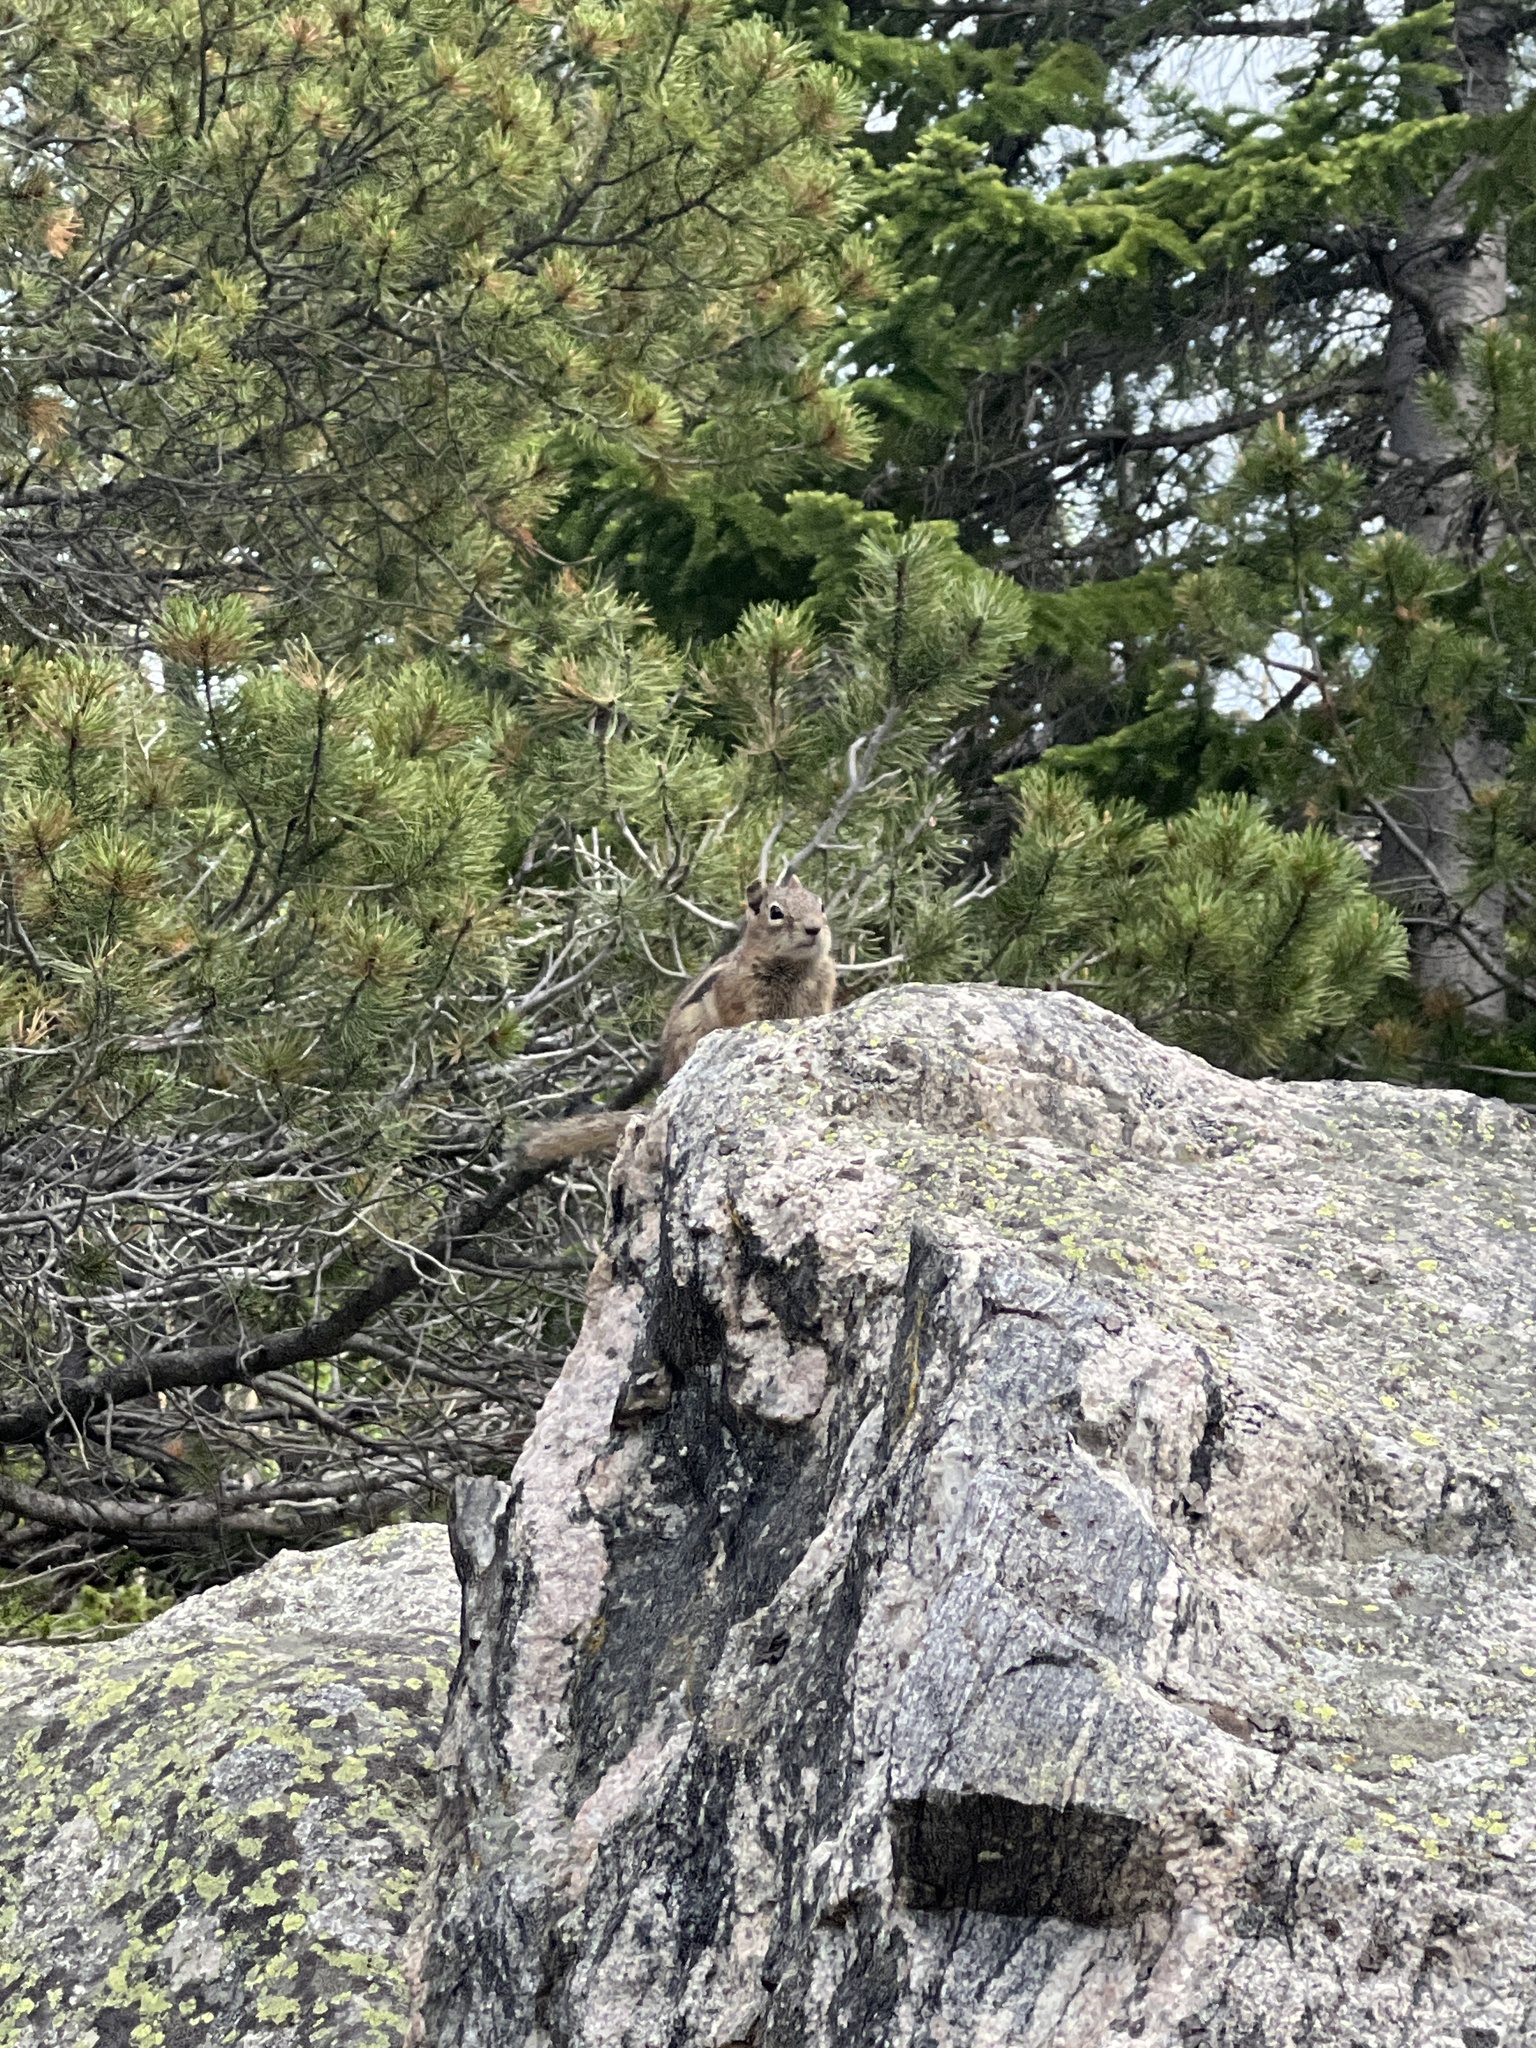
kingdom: Animalia
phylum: Chordata
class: Mammalia
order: Rodentia
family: Sciuridae
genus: Callospermophilus
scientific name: Callospermophilus lateralis
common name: Golden-mantled ground squirrel
